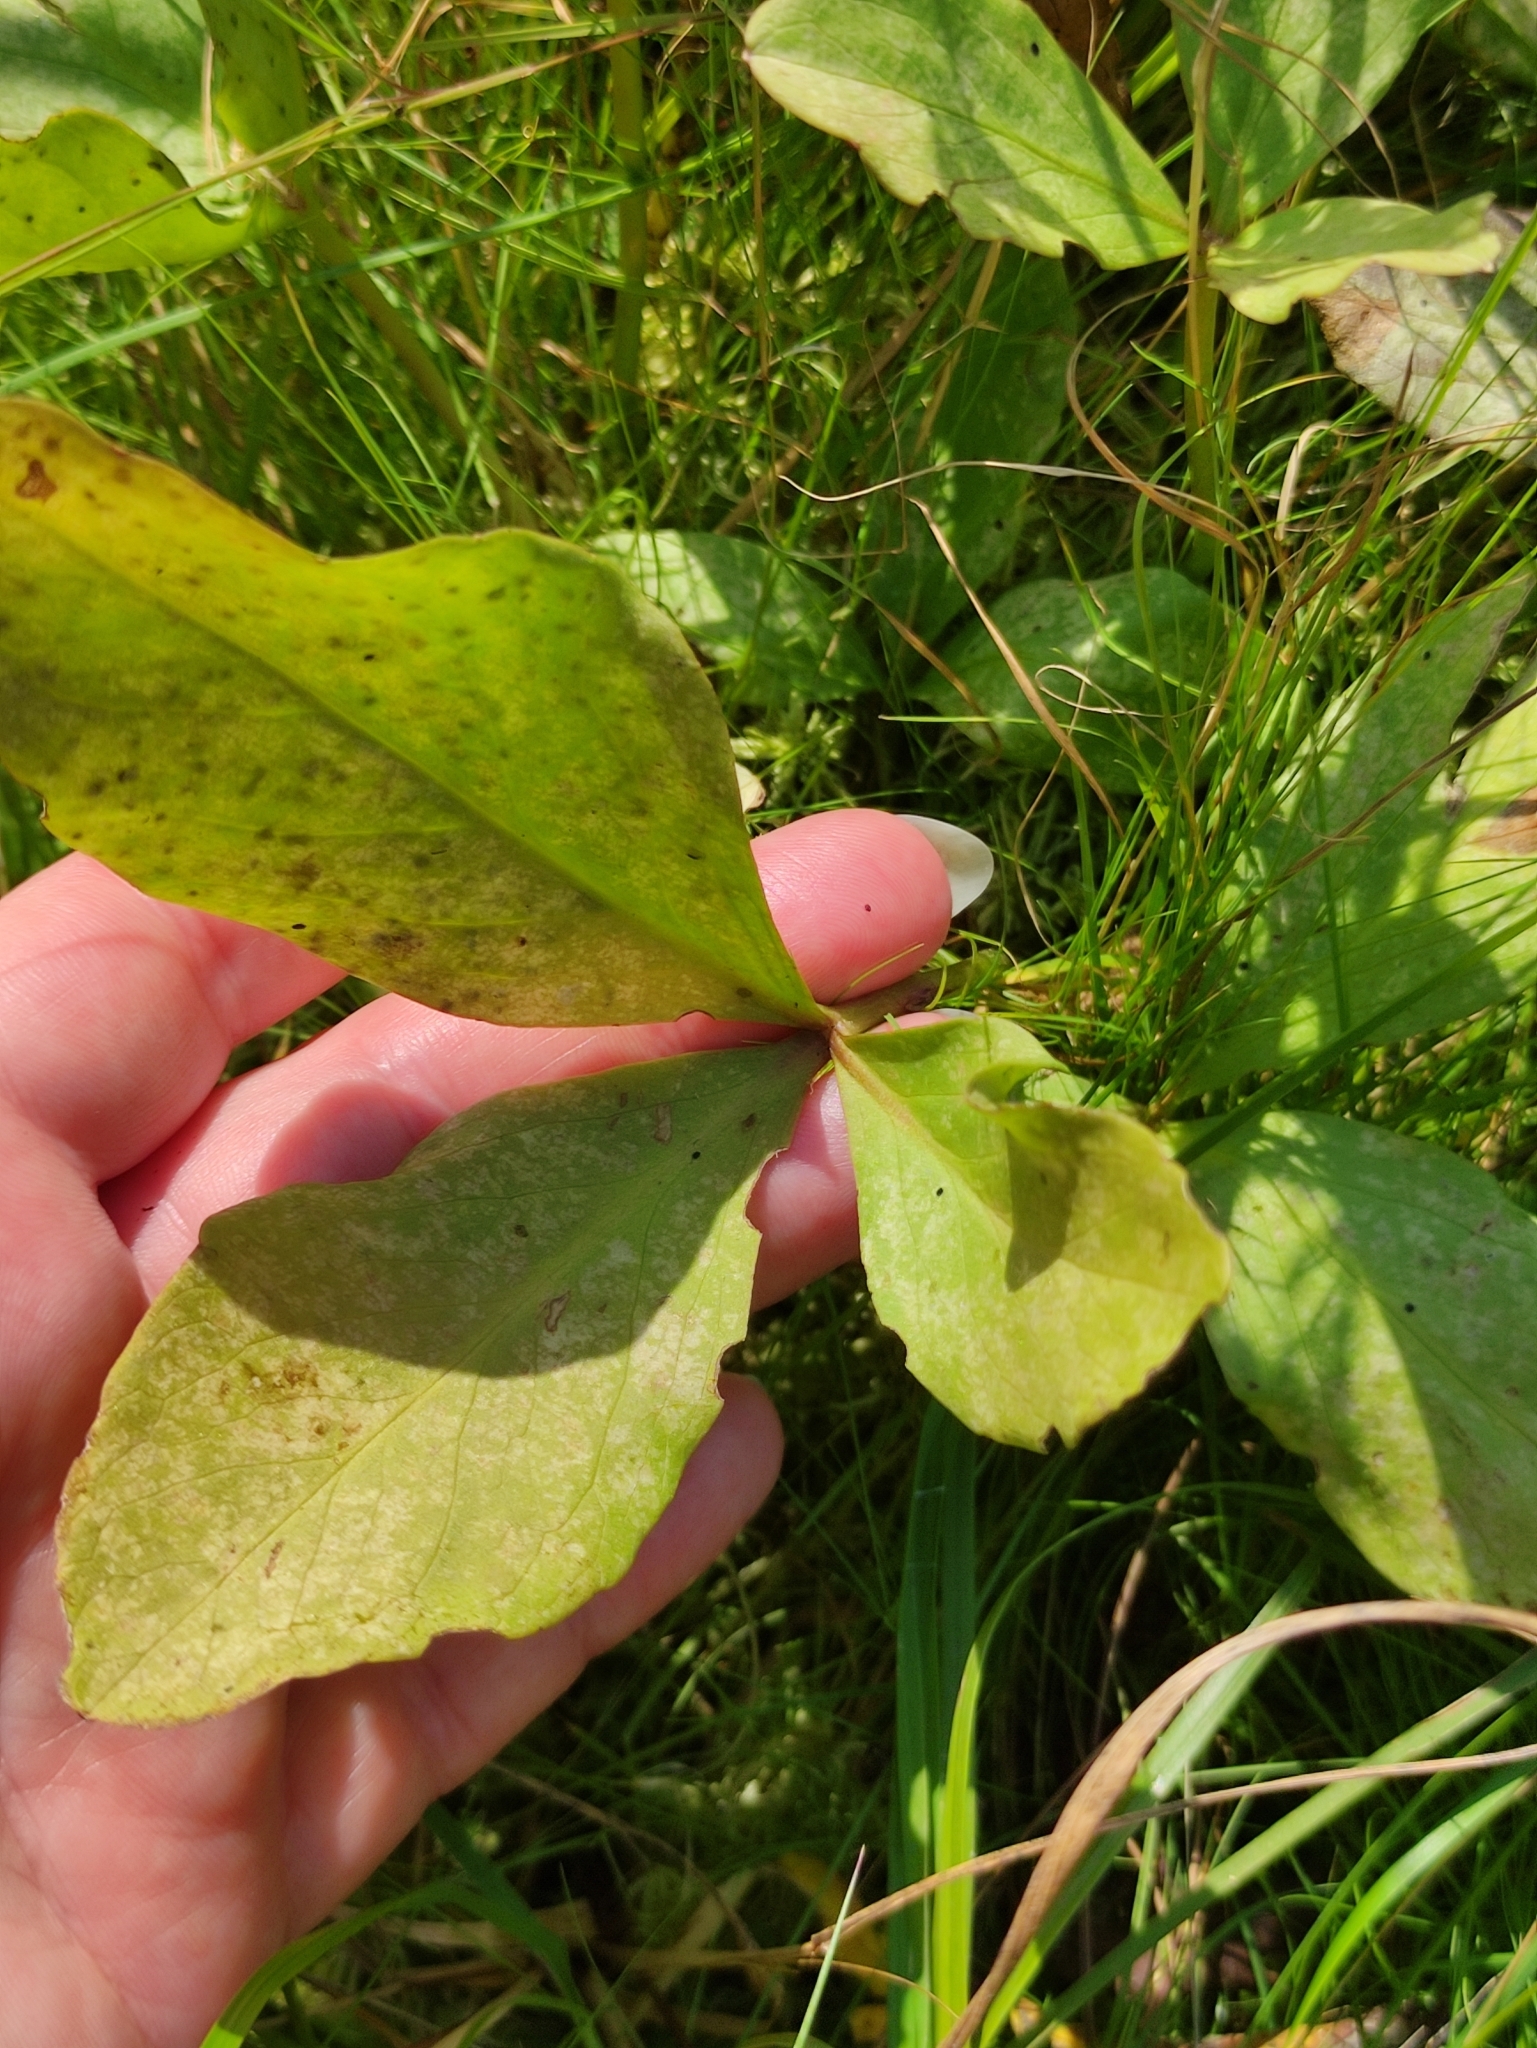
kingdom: Plantae
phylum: Tracheophyta
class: Magnoliopsida
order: Asterales
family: Menyanthaceae
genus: Menyanthes
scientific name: Menyanthes trifoliata
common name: Bogbean
